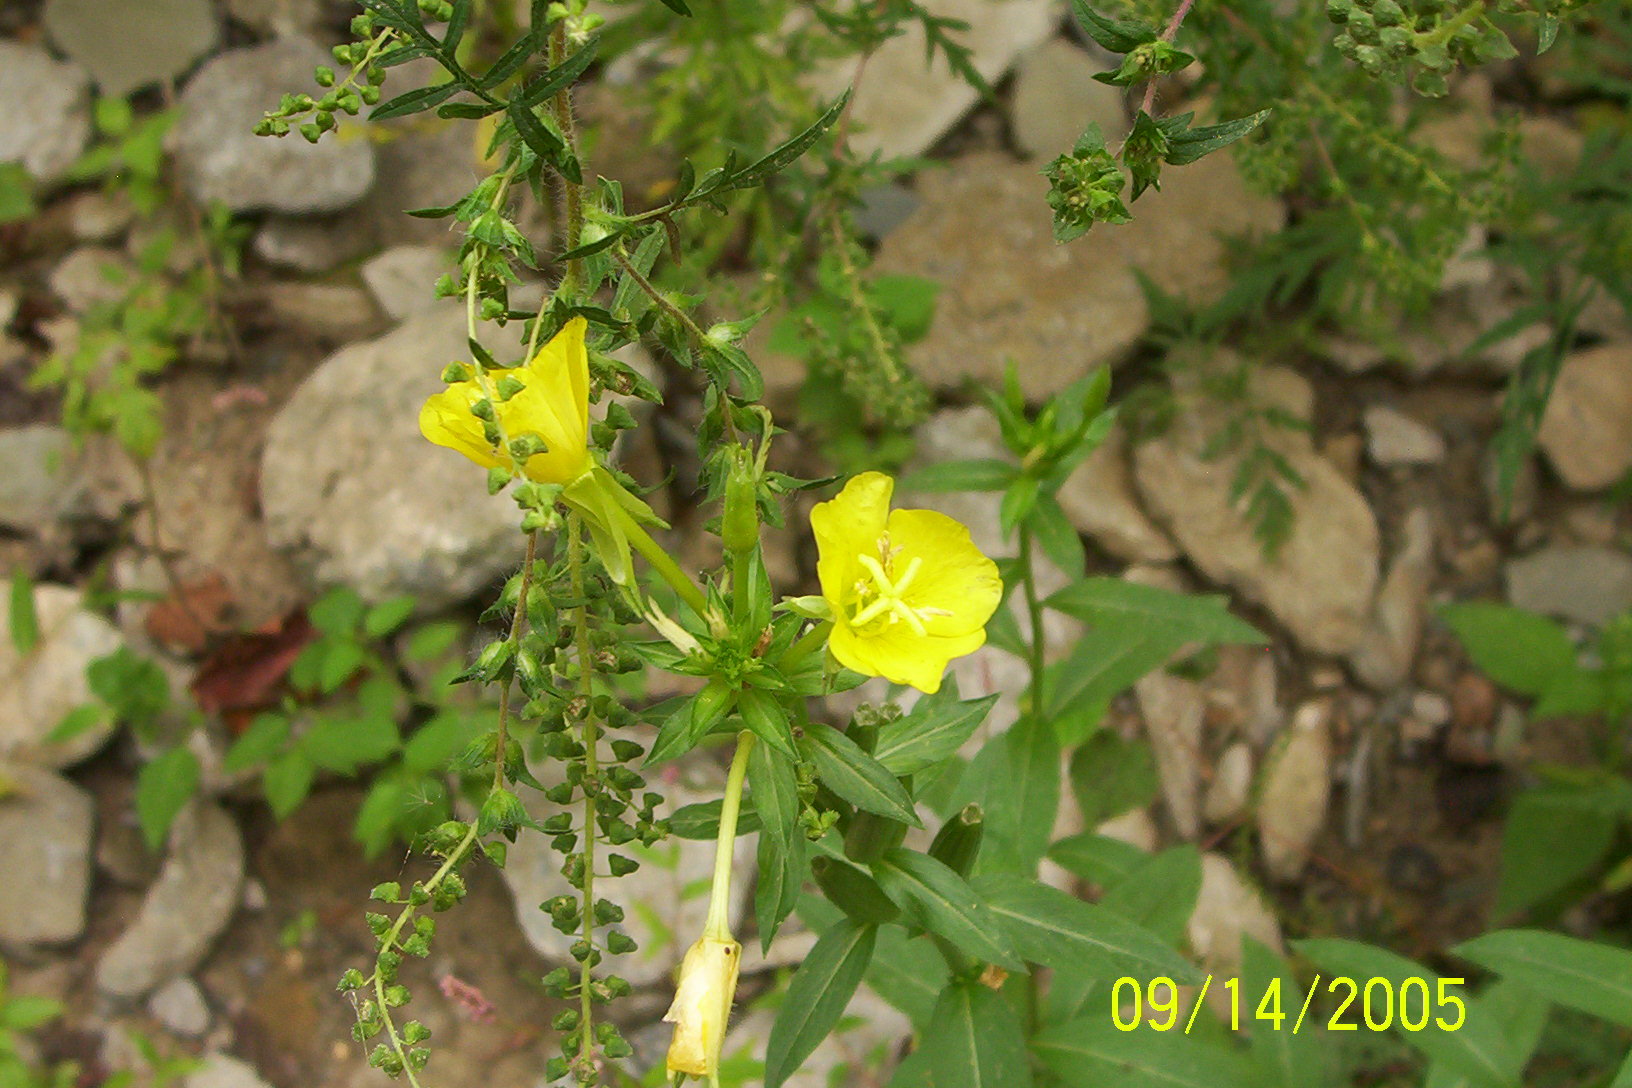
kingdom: Plantae
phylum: Tracheophyta
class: Magnoliopsida
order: Myrtales
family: Onagraceae
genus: Oenothera
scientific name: Oenothera biennis
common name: Common evening-primrose
